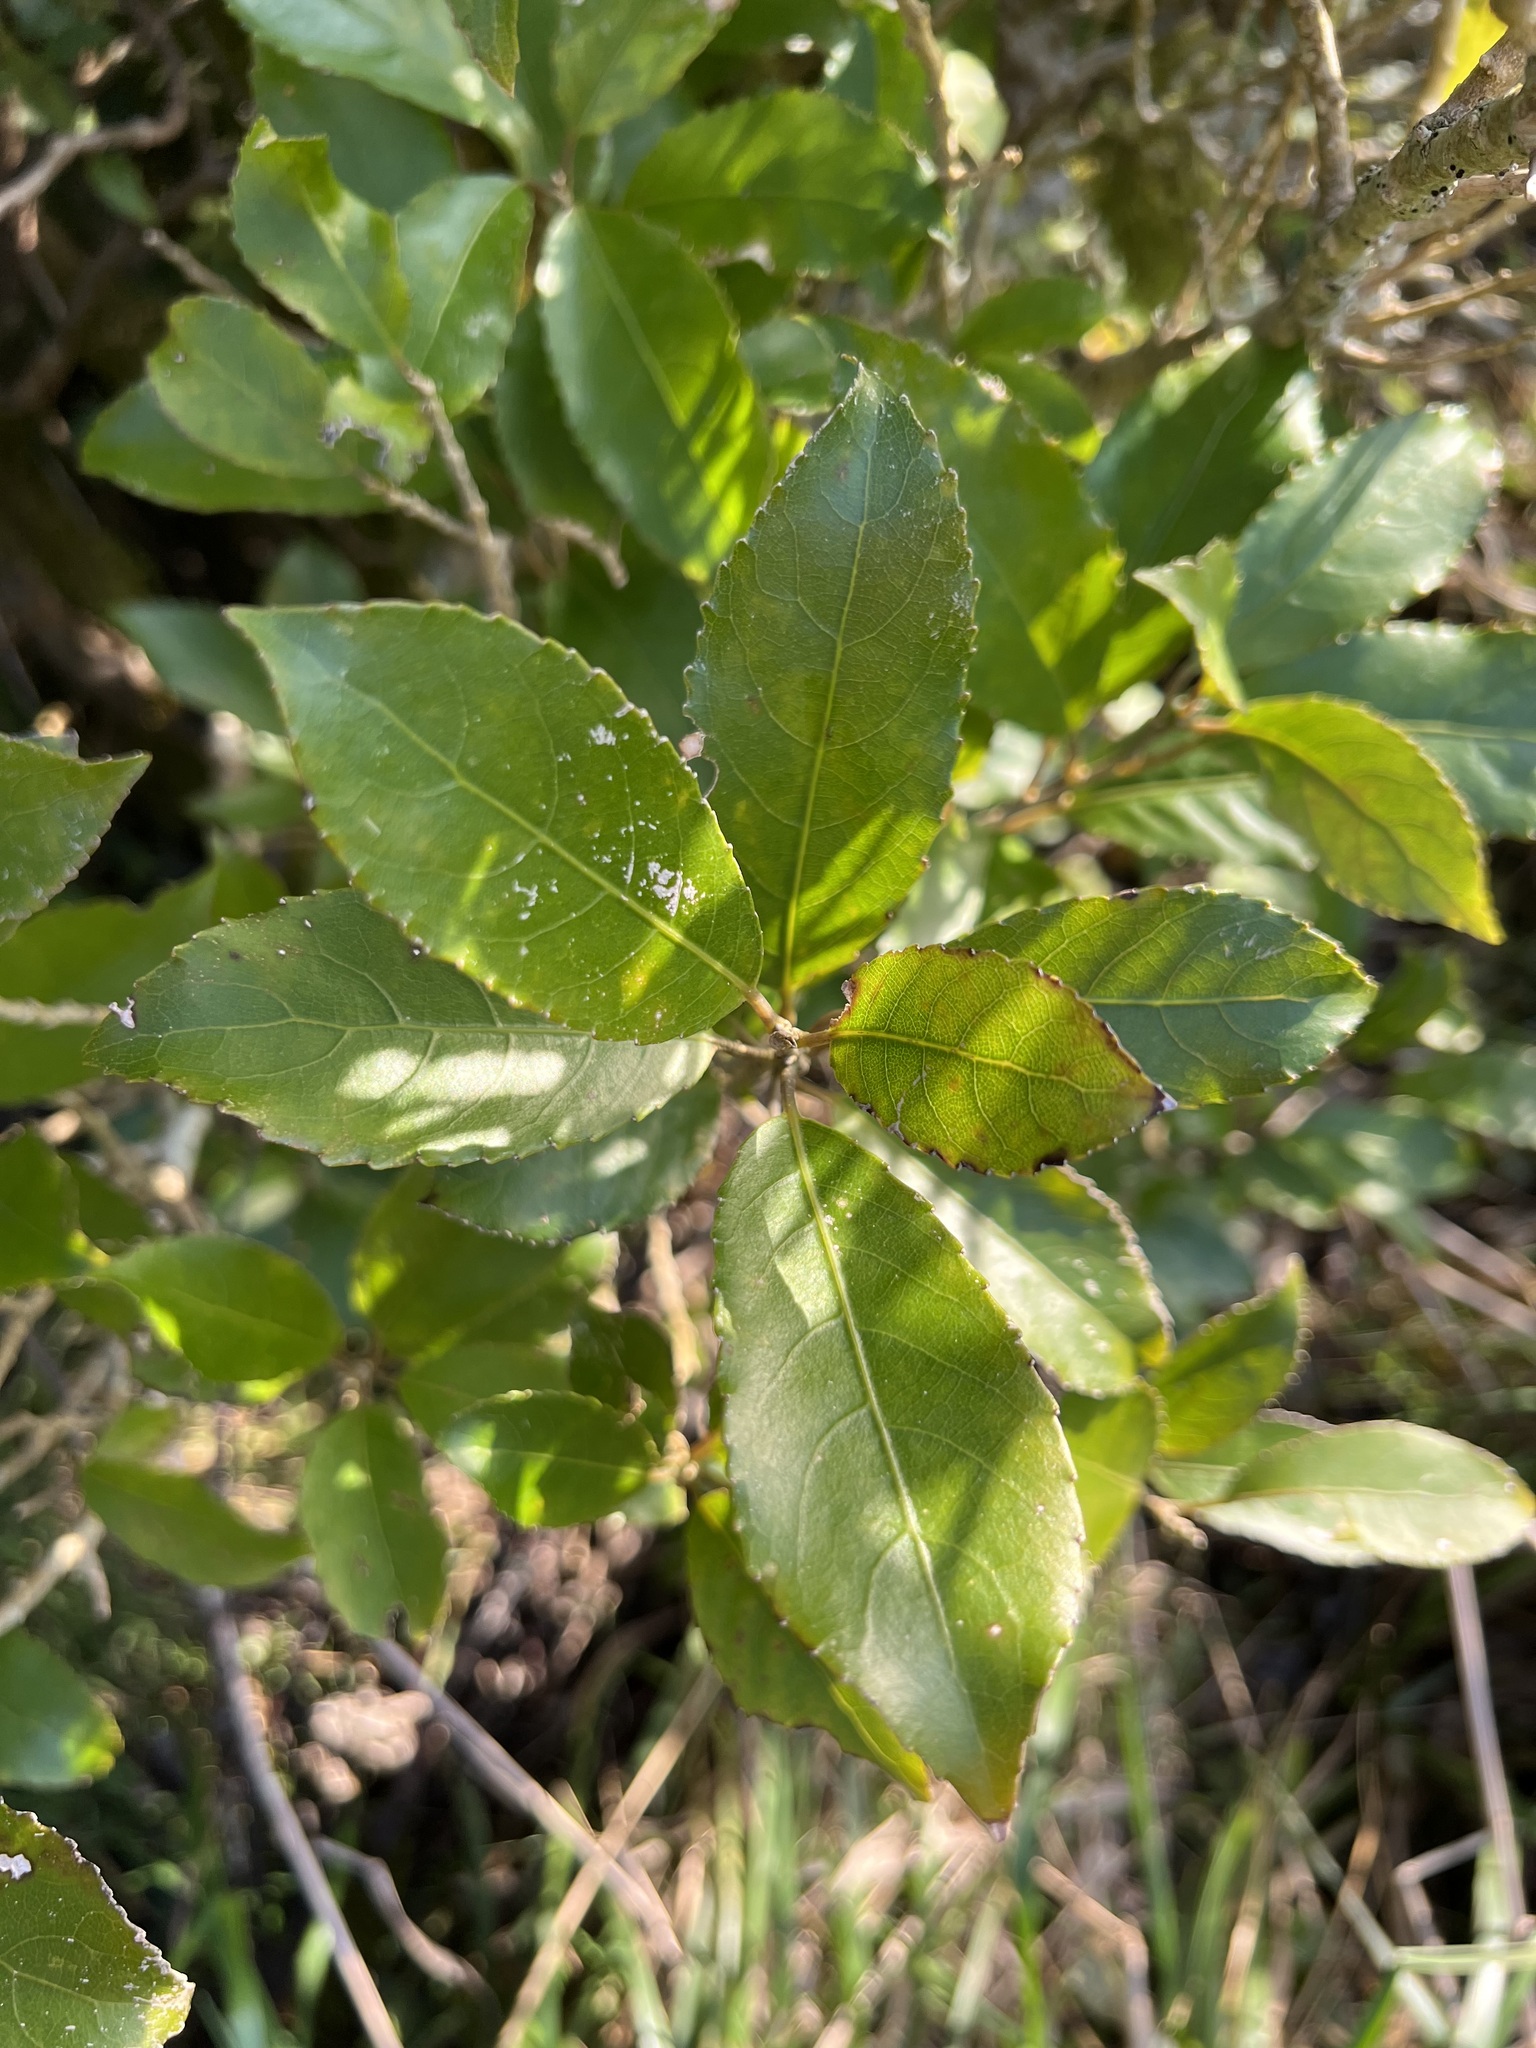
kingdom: Plantae
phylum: Tracheophyta
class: Magnoliopsida
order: Malpighiales
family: Violaceae
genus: Melicytus
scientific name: Melicytus ramiflorus
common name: Mahoe
